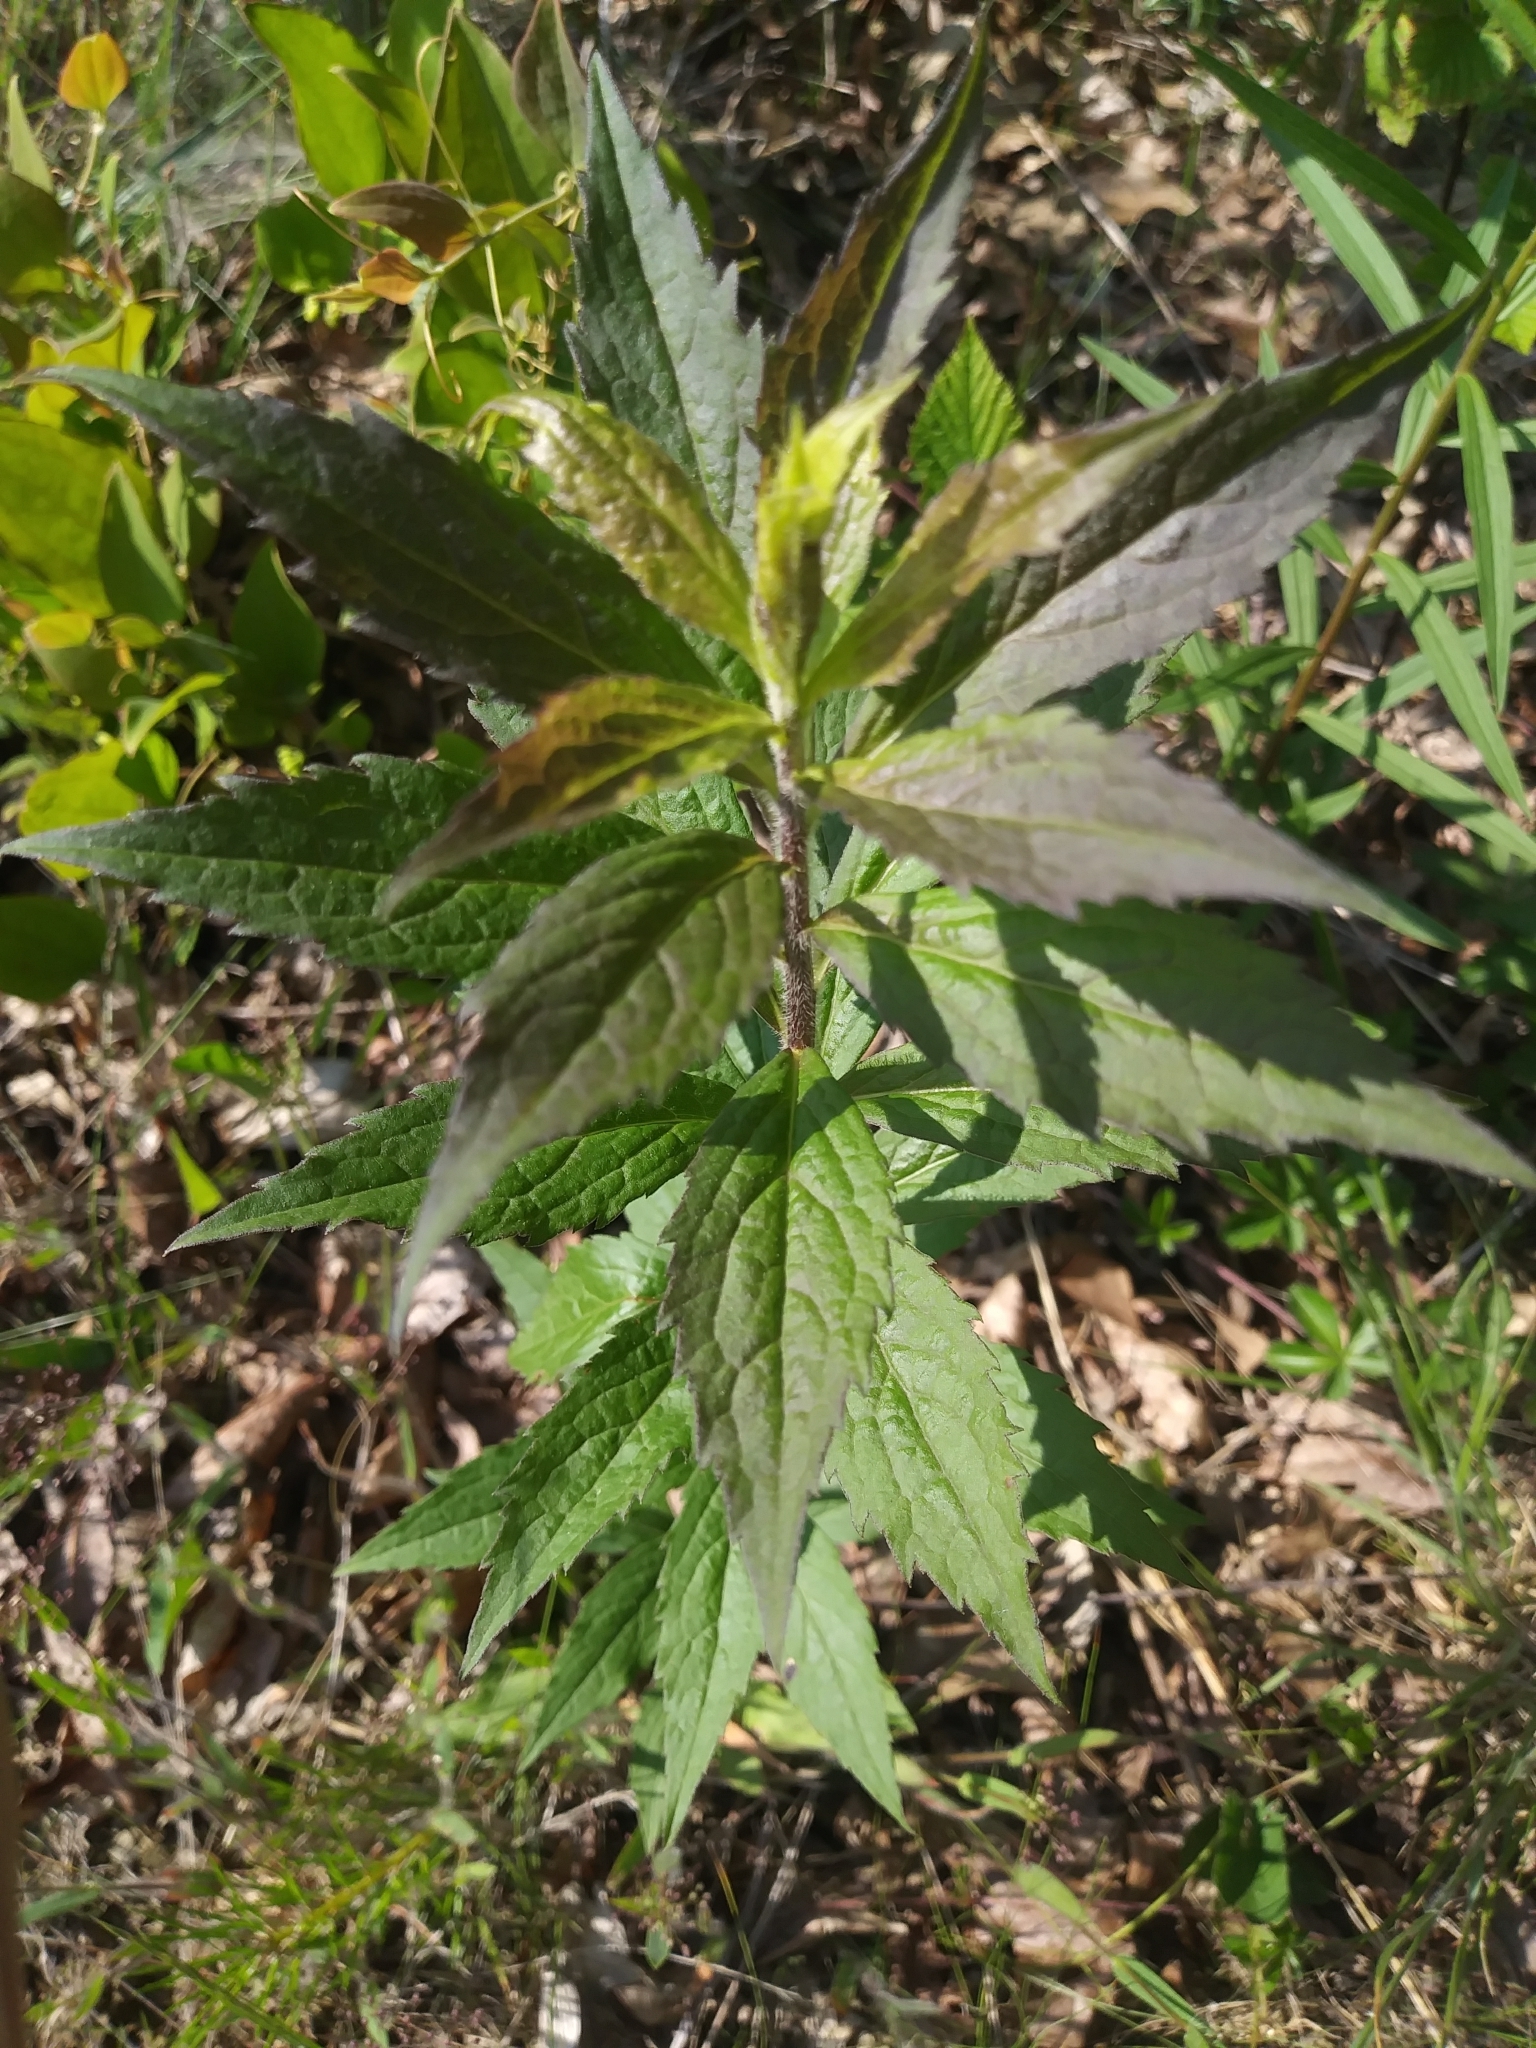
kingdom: Plantae
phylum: Tracheophyta
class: Magnoliopsida
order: Asterales
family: Asteraceae
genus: Solidago
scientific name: Solidago rugosa
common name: Rough-stemmed goldenrod
